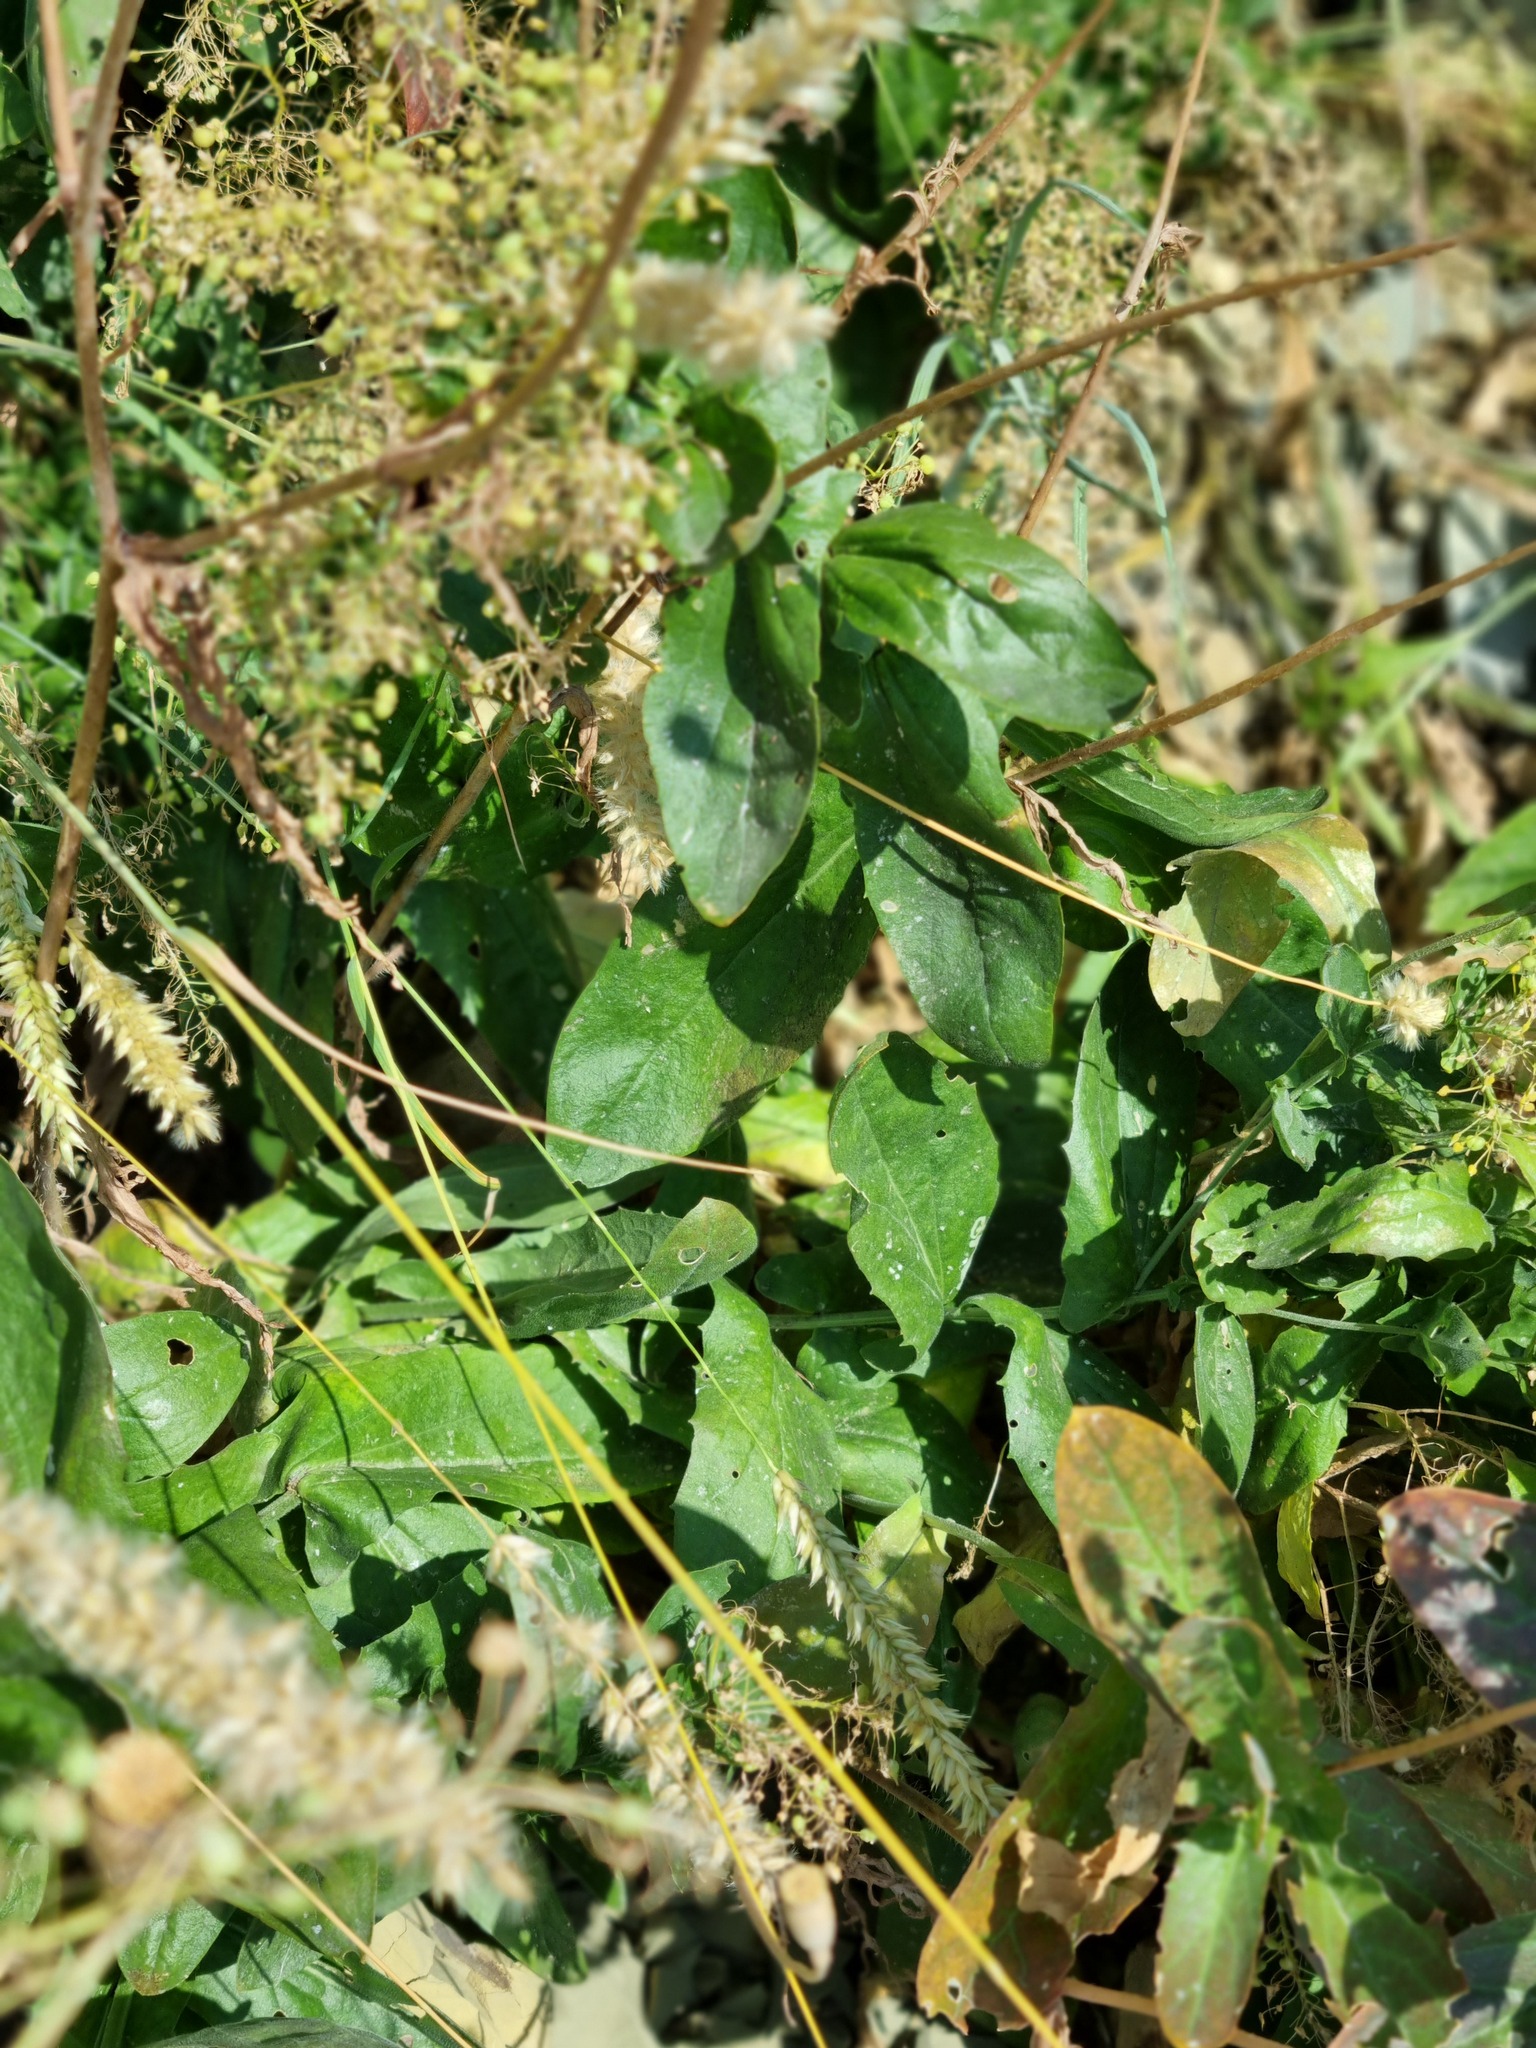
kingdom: Plantae
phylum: Tracheophyta
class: Magnoliopsida
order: Brassicales
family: Brassicaceae
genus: Lepidium
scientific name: Lepidium draba
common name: Hoary cress
